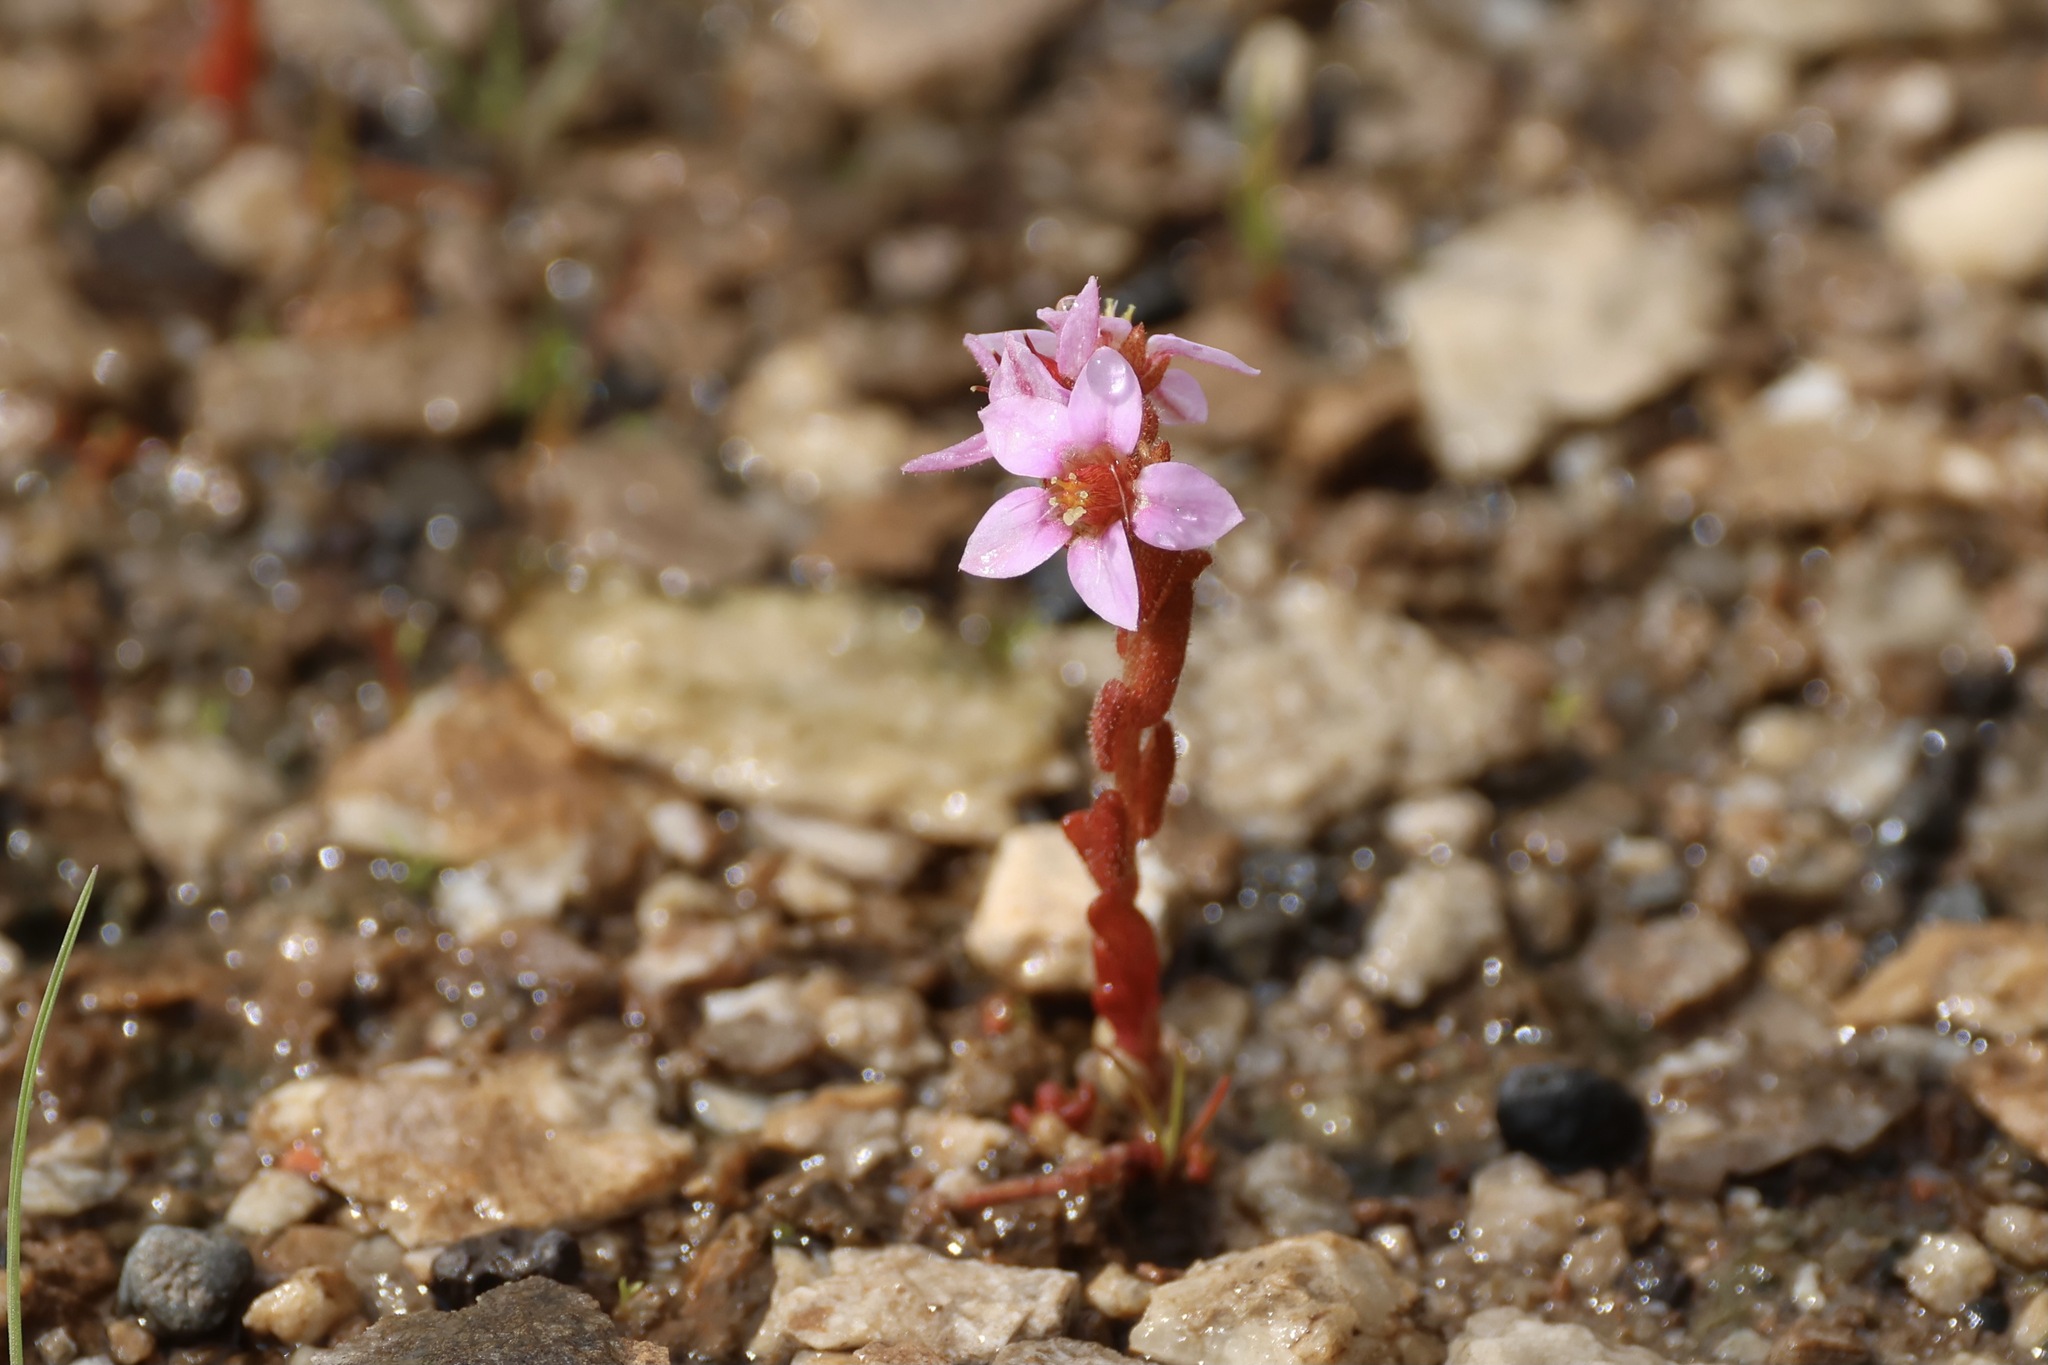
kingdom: Plantae
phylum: Tracheophyta
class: Magnoliopsida
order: Saxifragales
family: Crassulaceae
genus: Sedum
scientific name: Sedum villosum
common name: Hairy stonecrop
